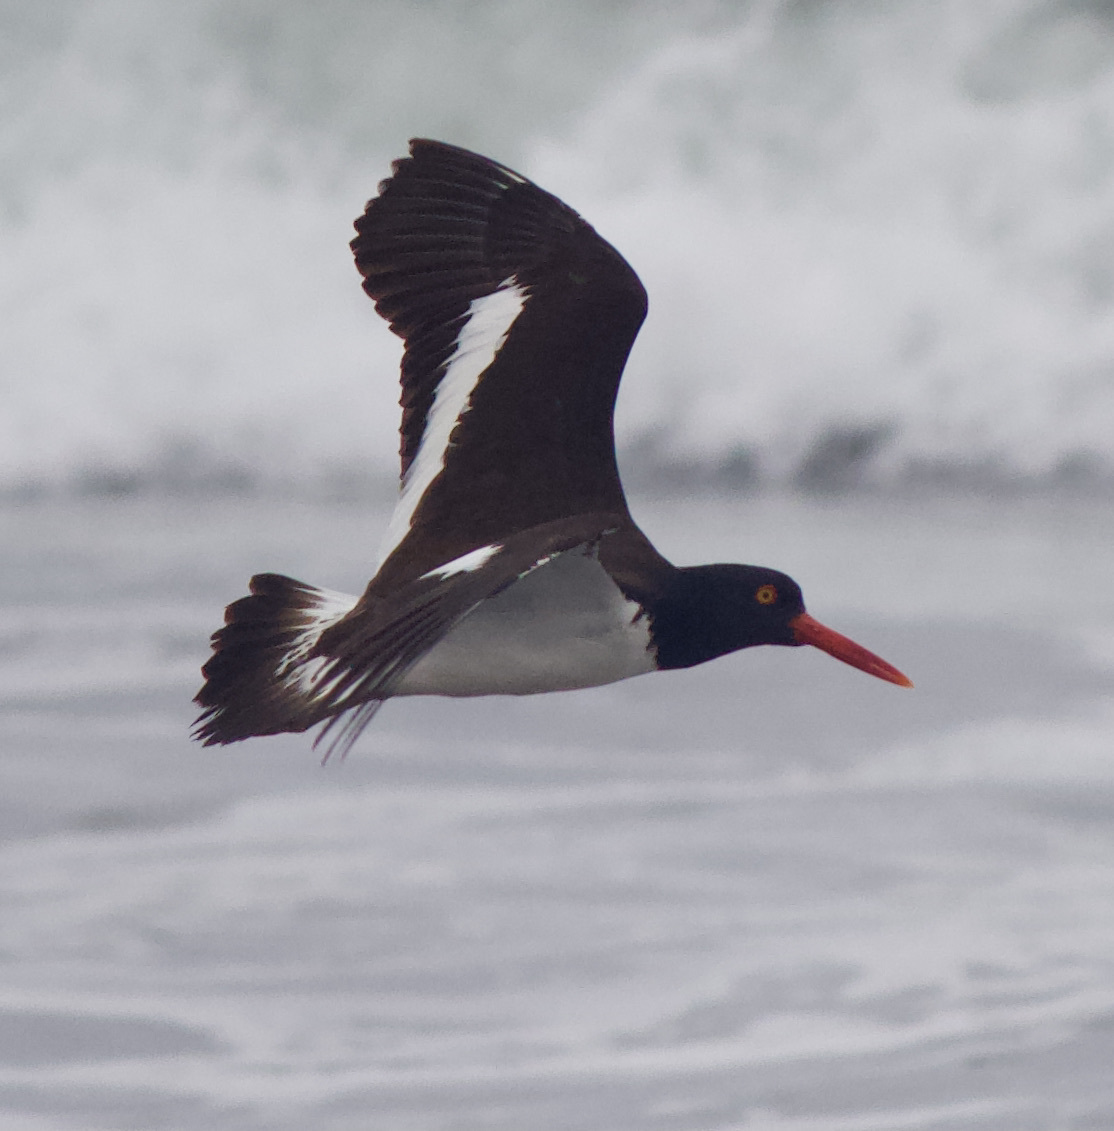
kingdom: Animalia
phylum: Chordata
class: Aves
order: Charadriiformes
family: Haematopodidae
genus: Haematopus
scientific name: Haematopus palliatus
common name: American oystercatcher
